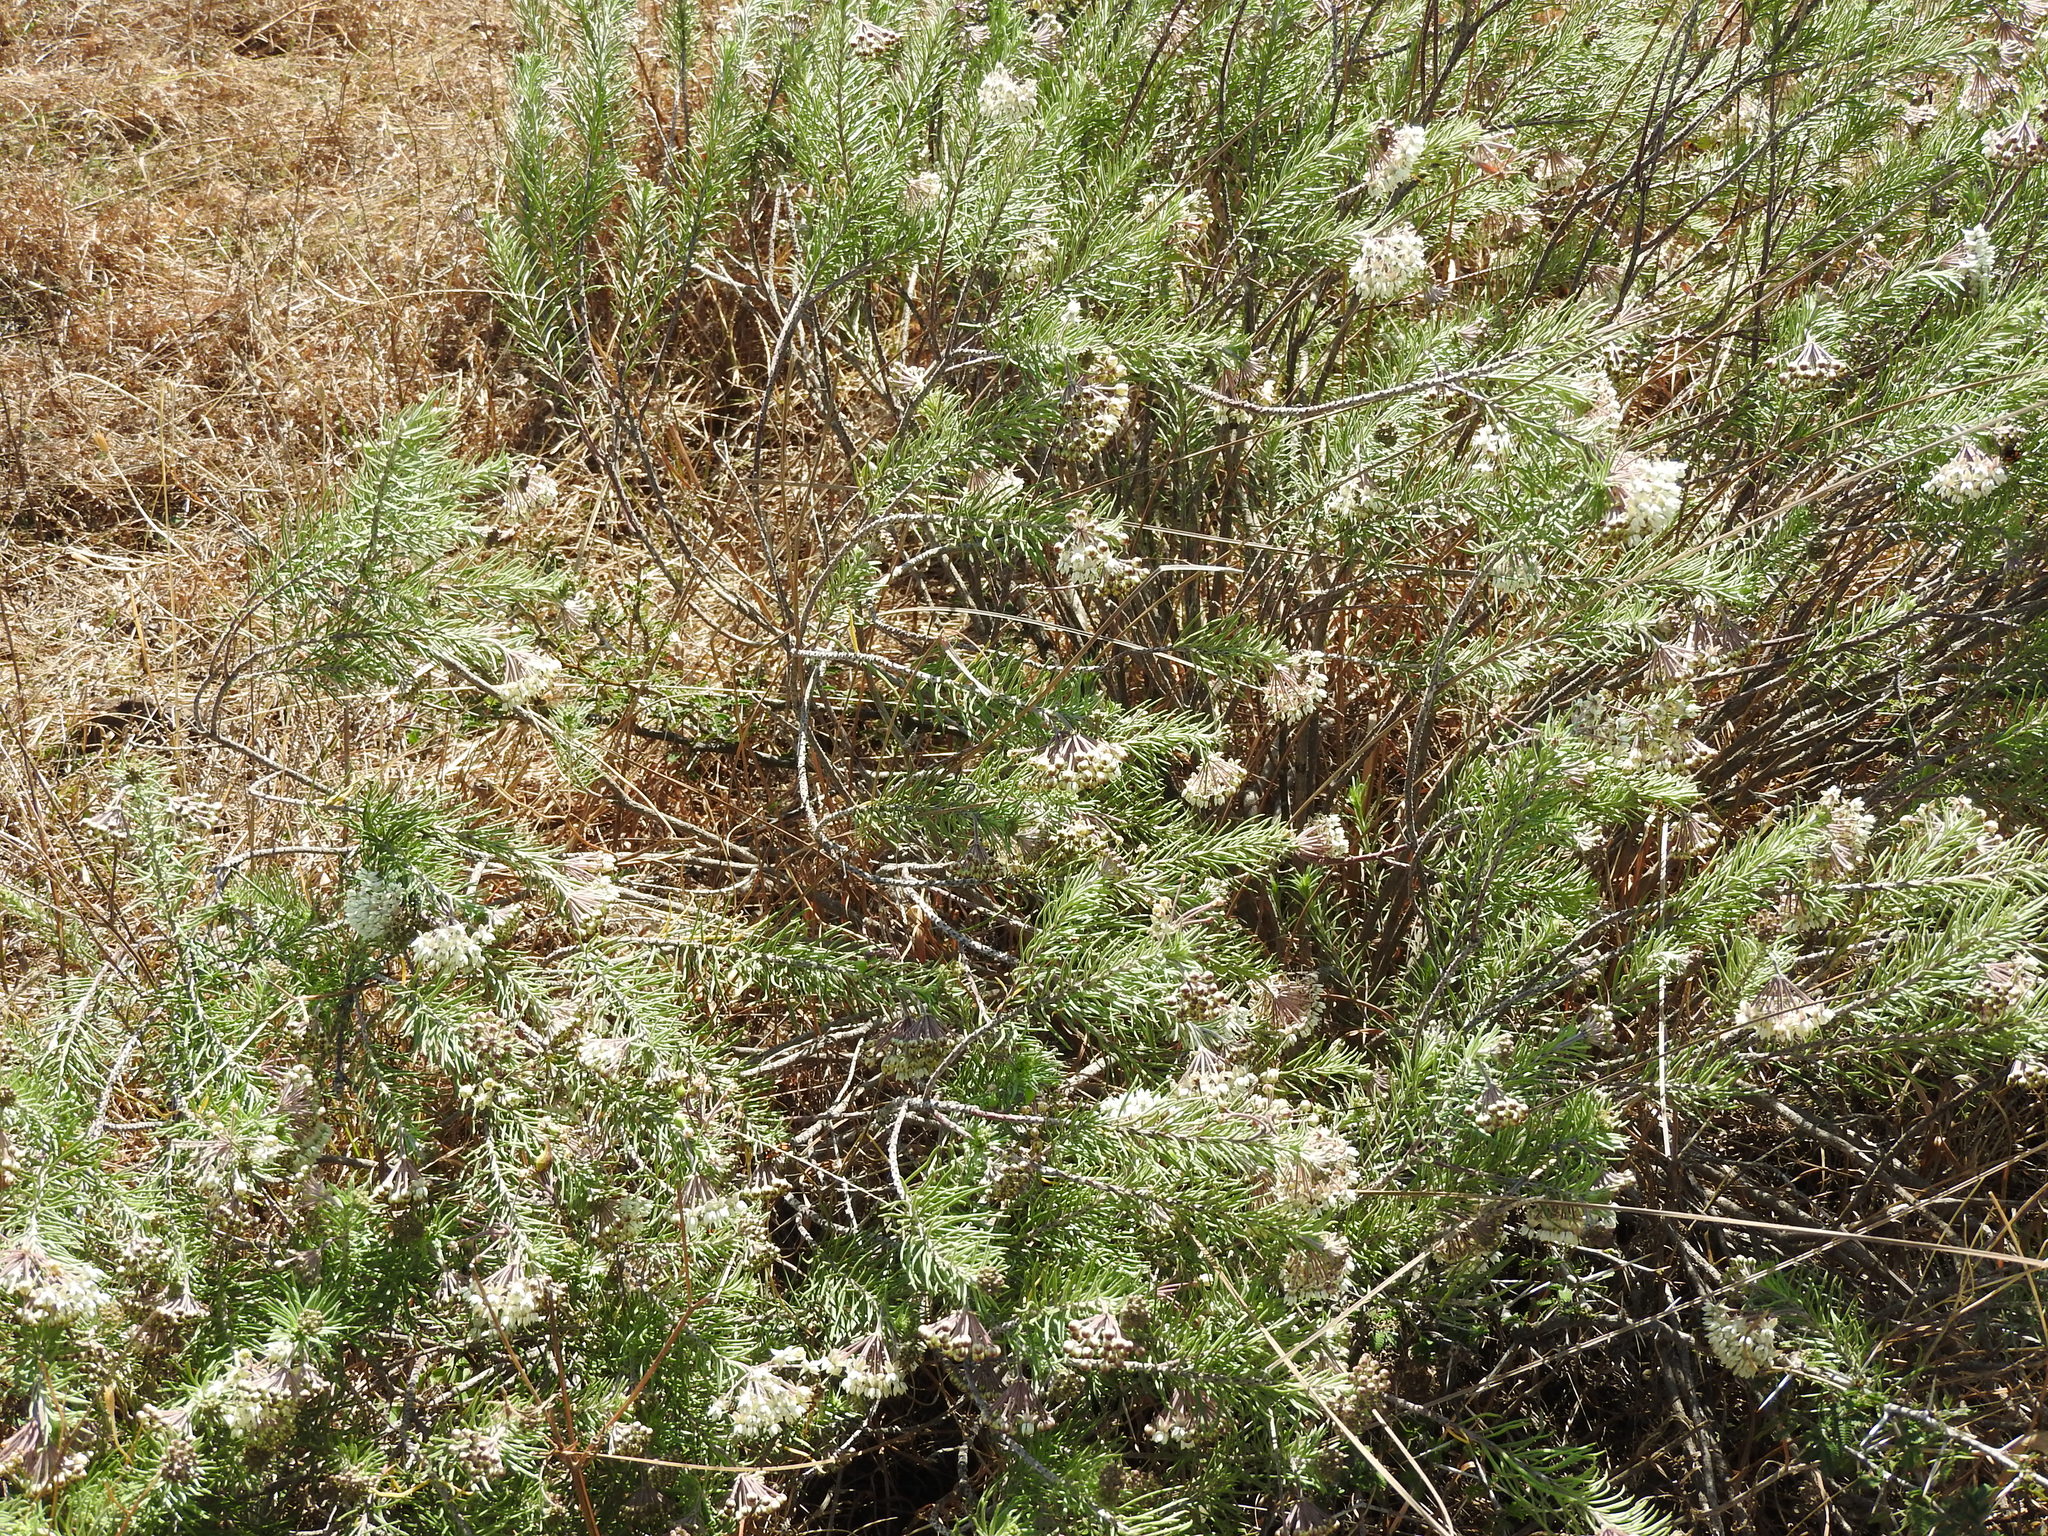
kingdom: Plantae
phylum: Tracheophyta
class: Magnoliopsida
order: Gentianales
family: Apocynaceae
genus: Asclepias
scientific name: Asclepias linaria
